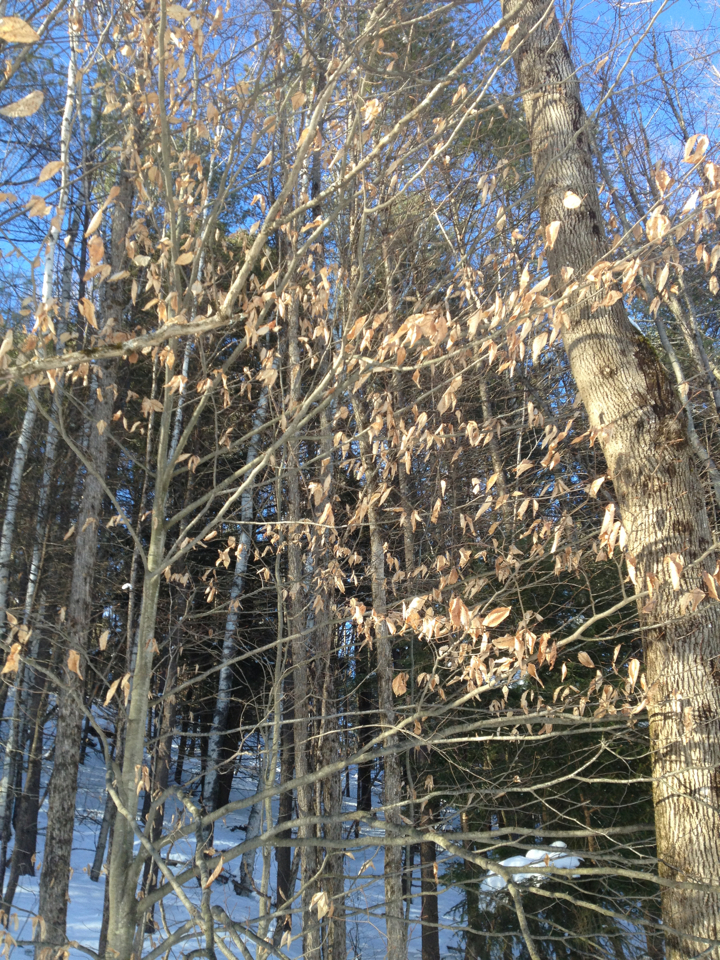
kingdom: Plantae
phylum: Tracheophyta
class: Magnoliopsida
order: Fagales
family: Fagaceae
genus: Fagus
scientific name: Fagus grandifolia
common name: American beech
